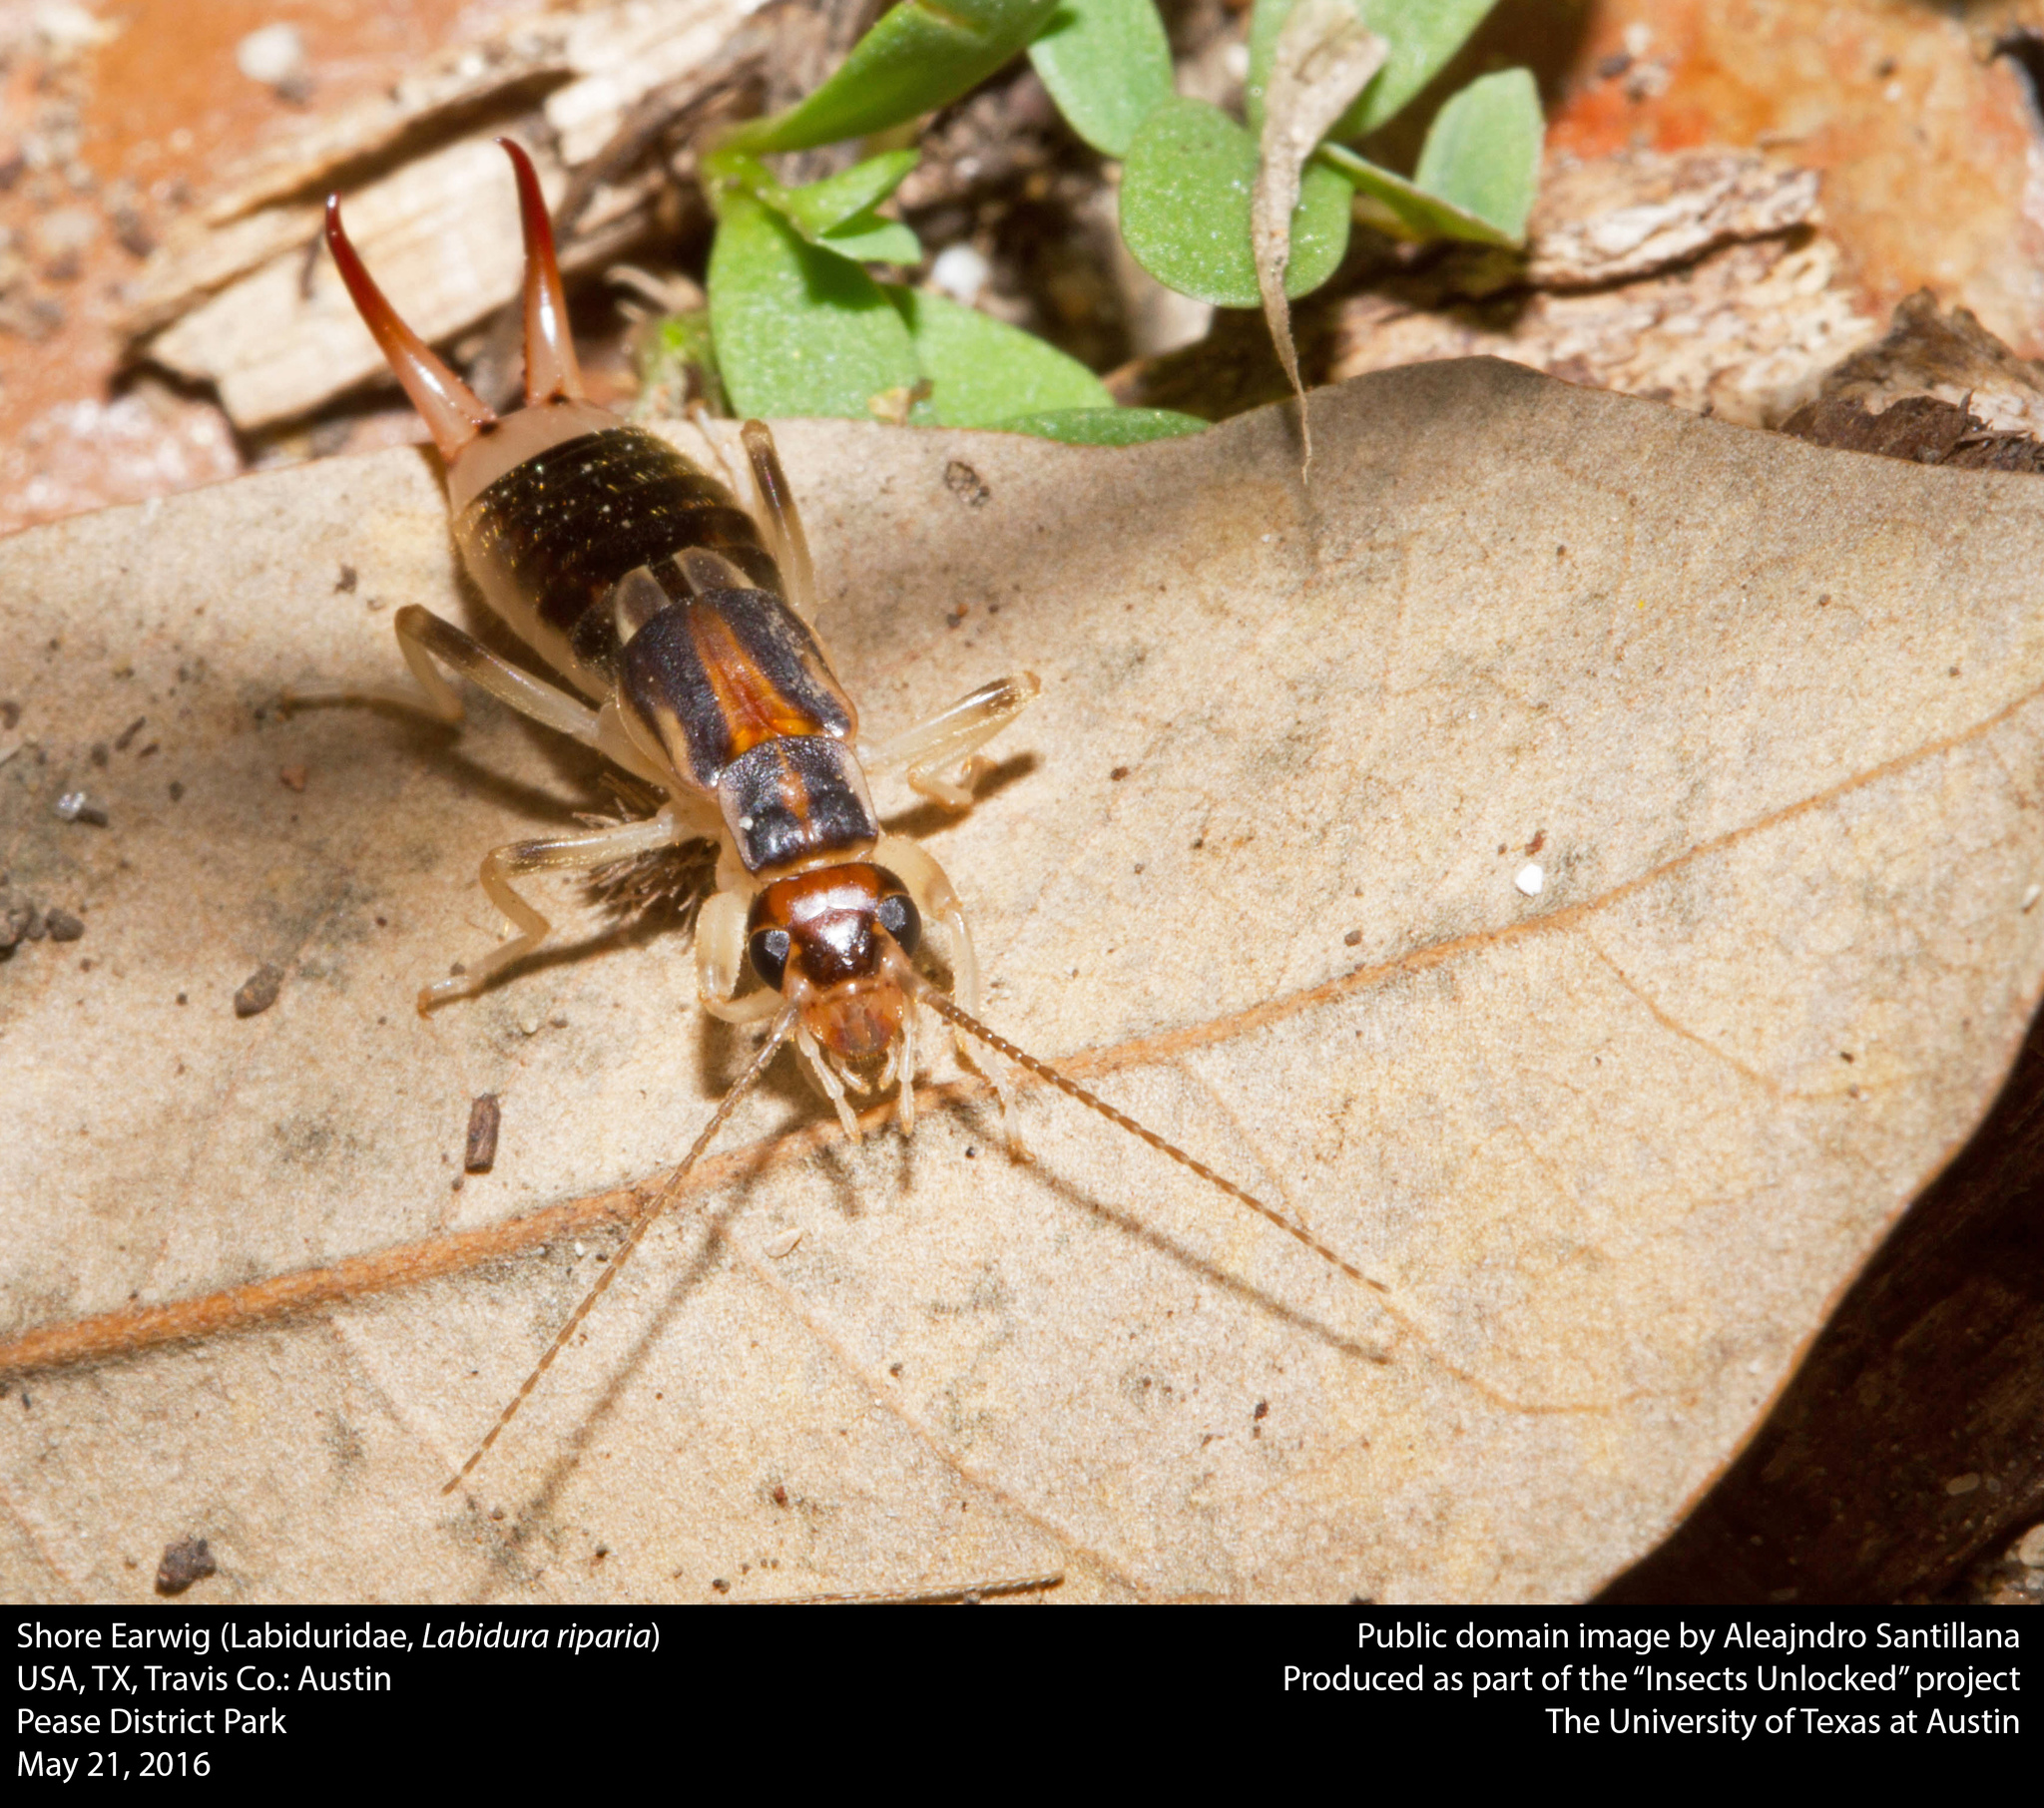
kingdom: Animalia
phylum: Arthropoda
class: Insecta
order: Dermaptera
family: Labiduridae
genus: Labidura
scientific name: Labidura riparia
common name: Striped earwig
